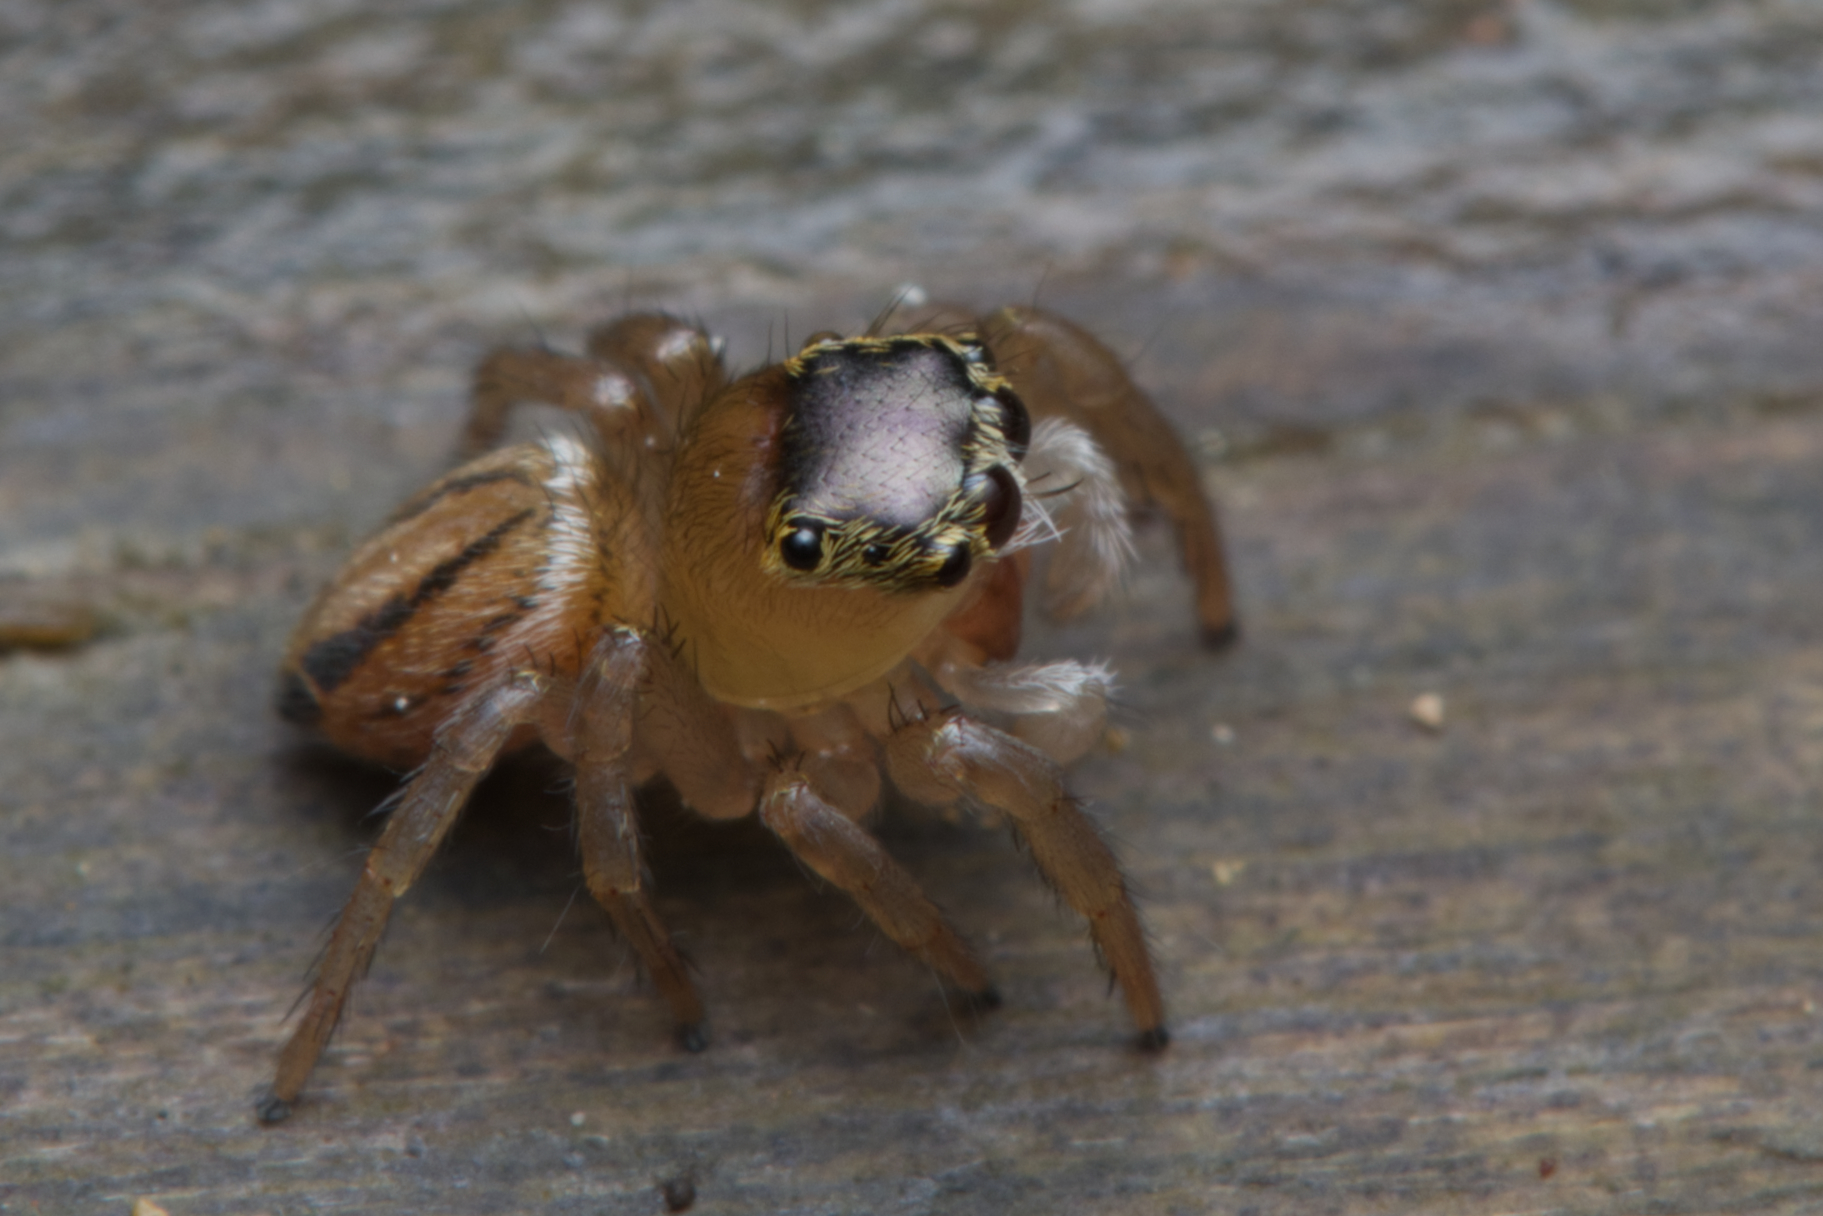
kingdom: Animalia
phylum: Arthropoda
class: Arachnida
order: Araneae
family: Salticidae
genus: Maratus
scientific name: Maratus scutulatus
